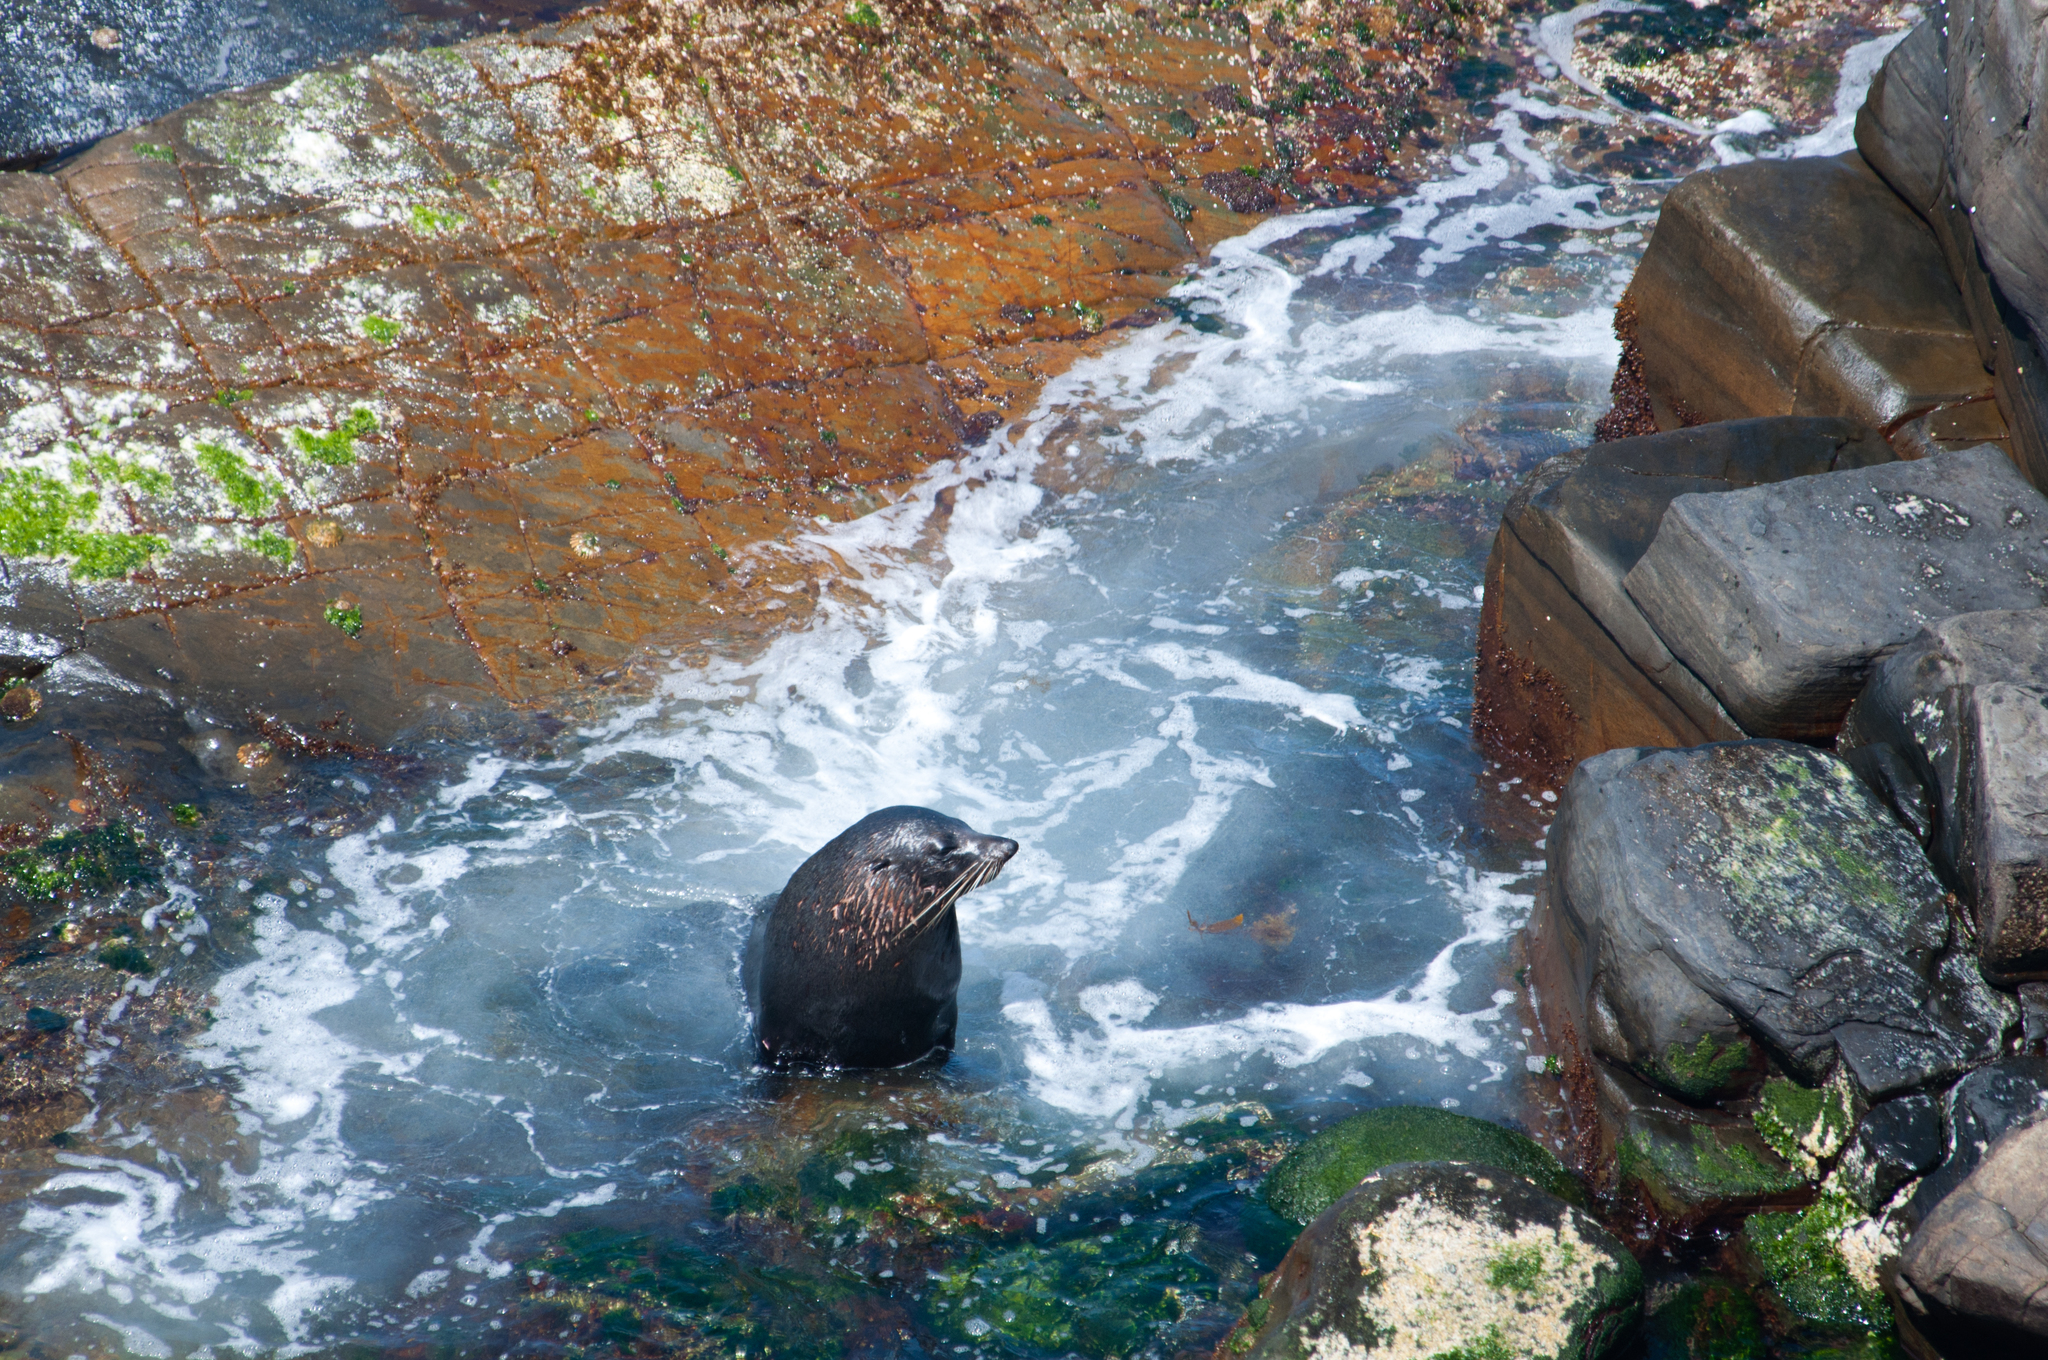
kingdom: Animalia
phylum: Chordata
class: Mammalia
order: Carnivora
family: Otariidae
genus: Arctocephalus
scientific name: Arctocephalus forsteri
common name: New zealand fur seal
